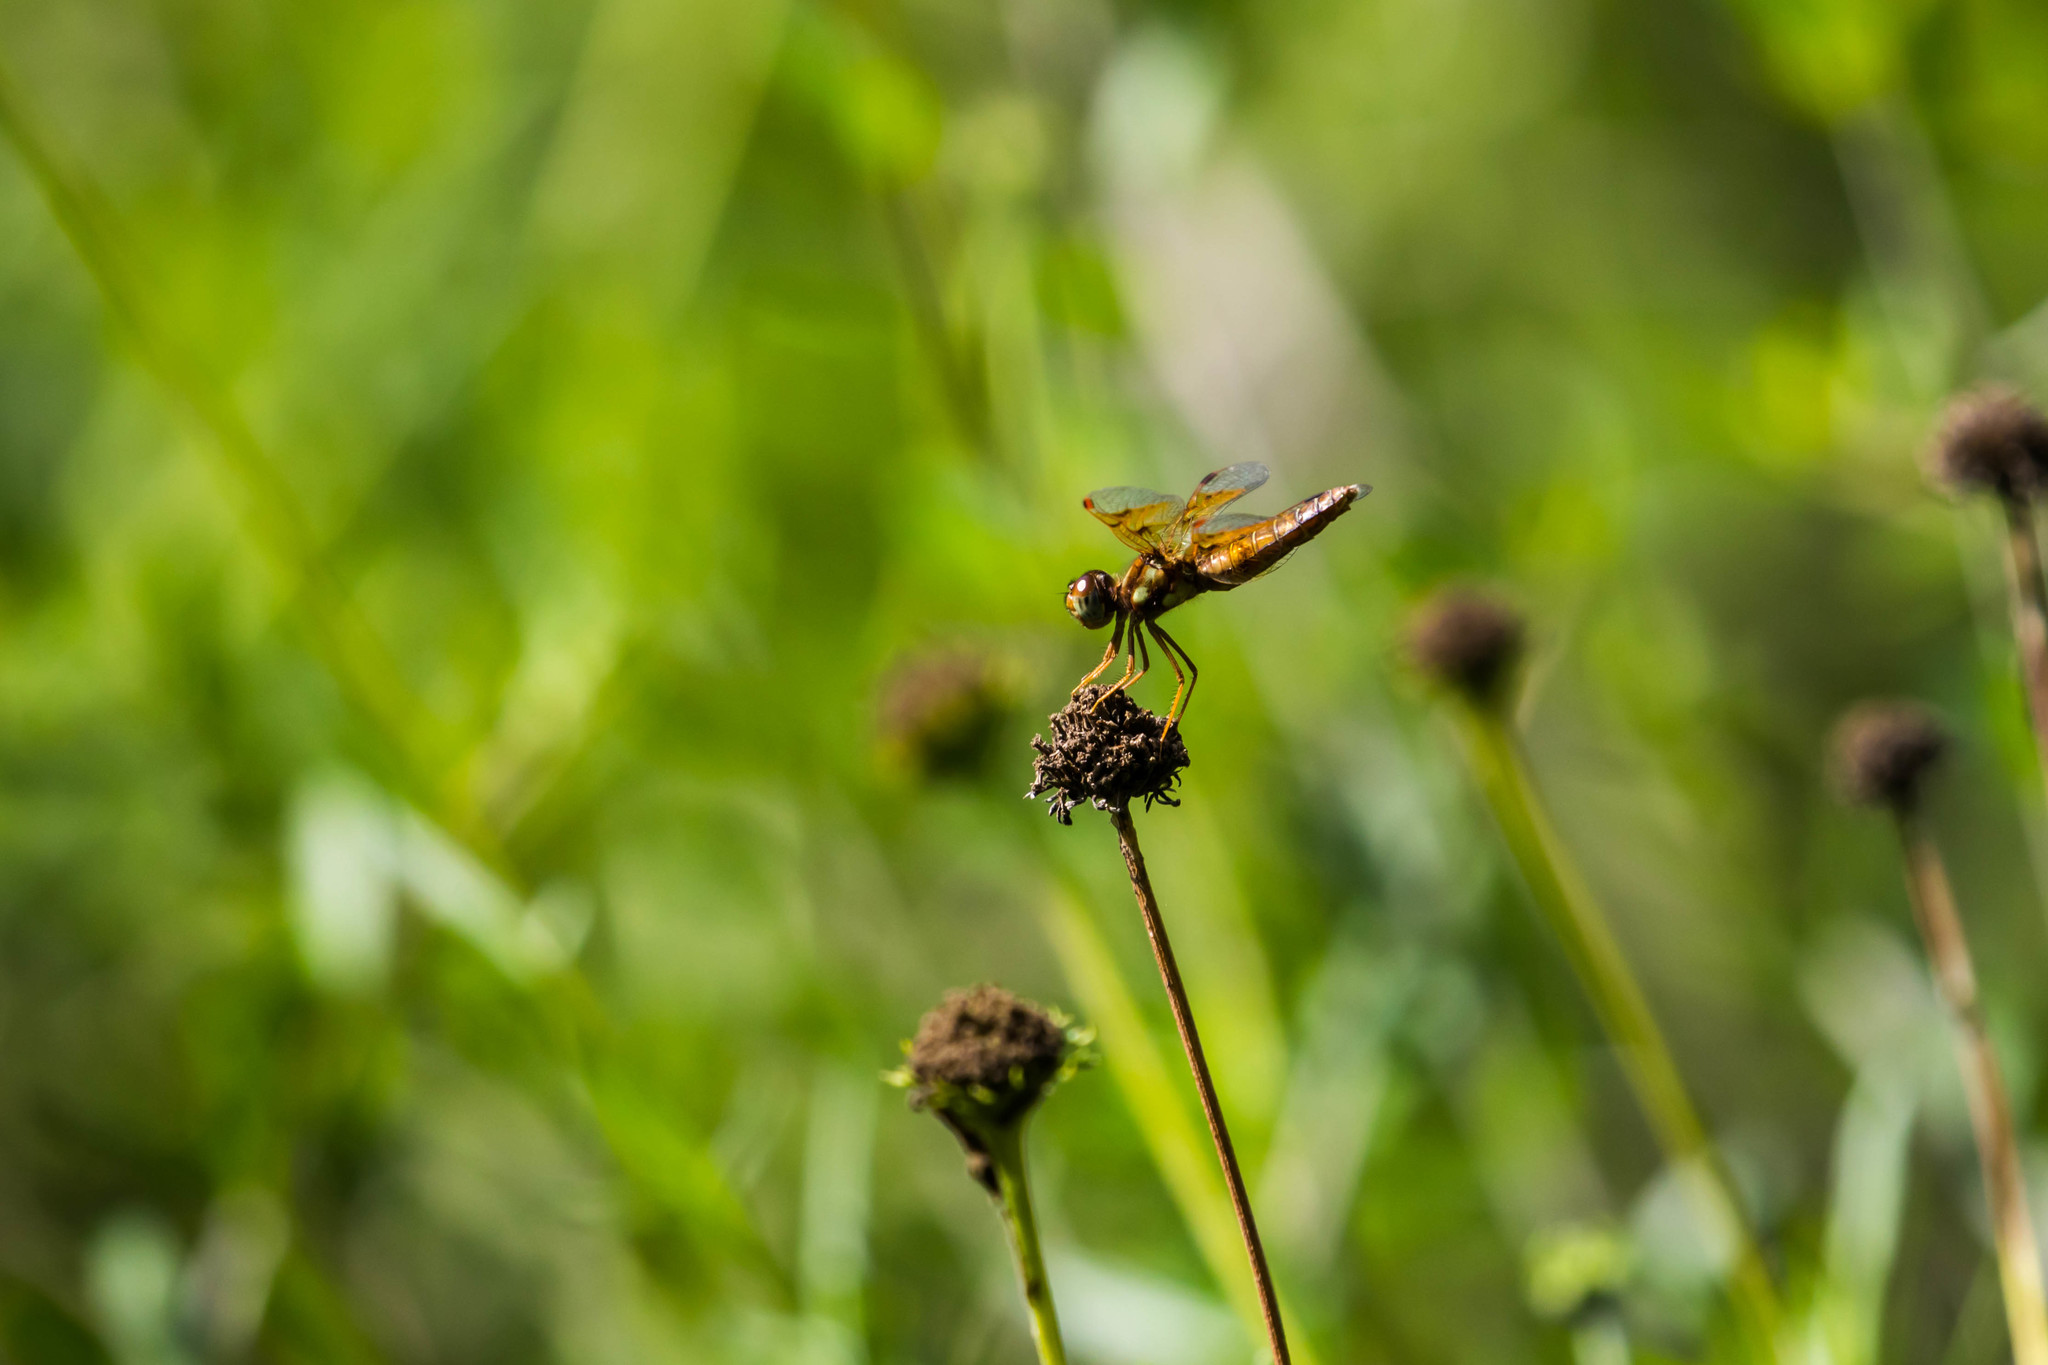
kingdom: Animalia
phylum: Arthropoda
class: Insecta
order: Odonata
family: Libellulidae
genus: Perithemis
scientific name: Perithemis tenera
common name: Eastern amberwing
